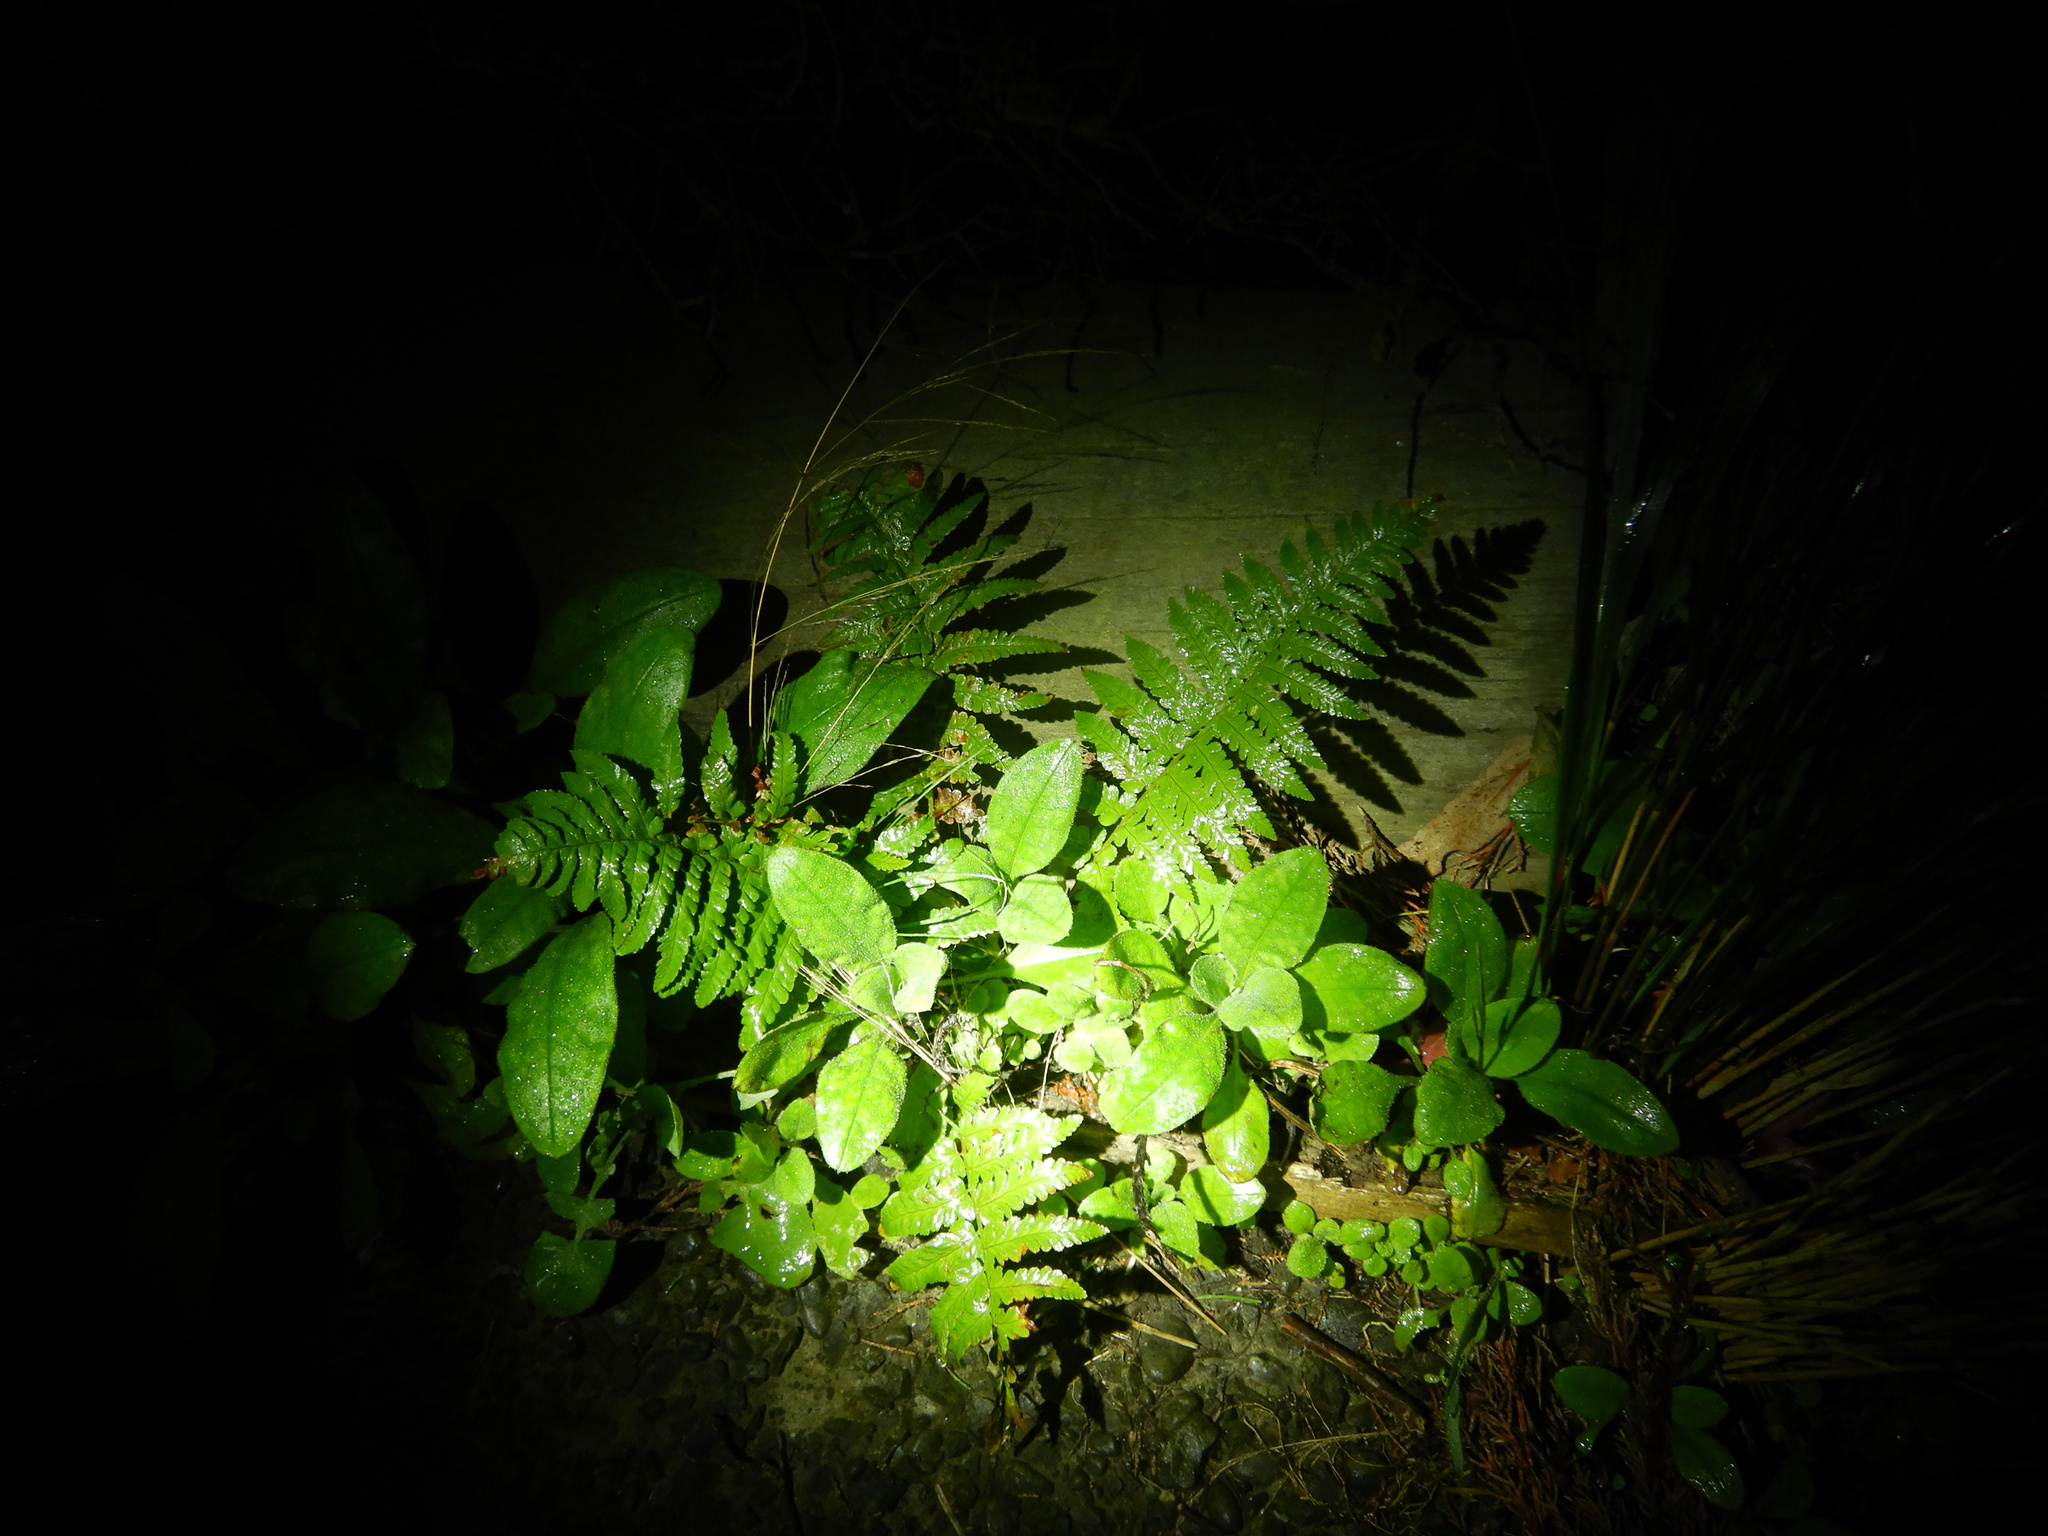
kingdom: Plantae
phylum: Tracheophyta
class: Polypodiopsida
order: Polypodiales
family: Dryopteridaceae
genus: Dryopteris
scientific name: Dryopteris filix-mas
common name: Male fern
